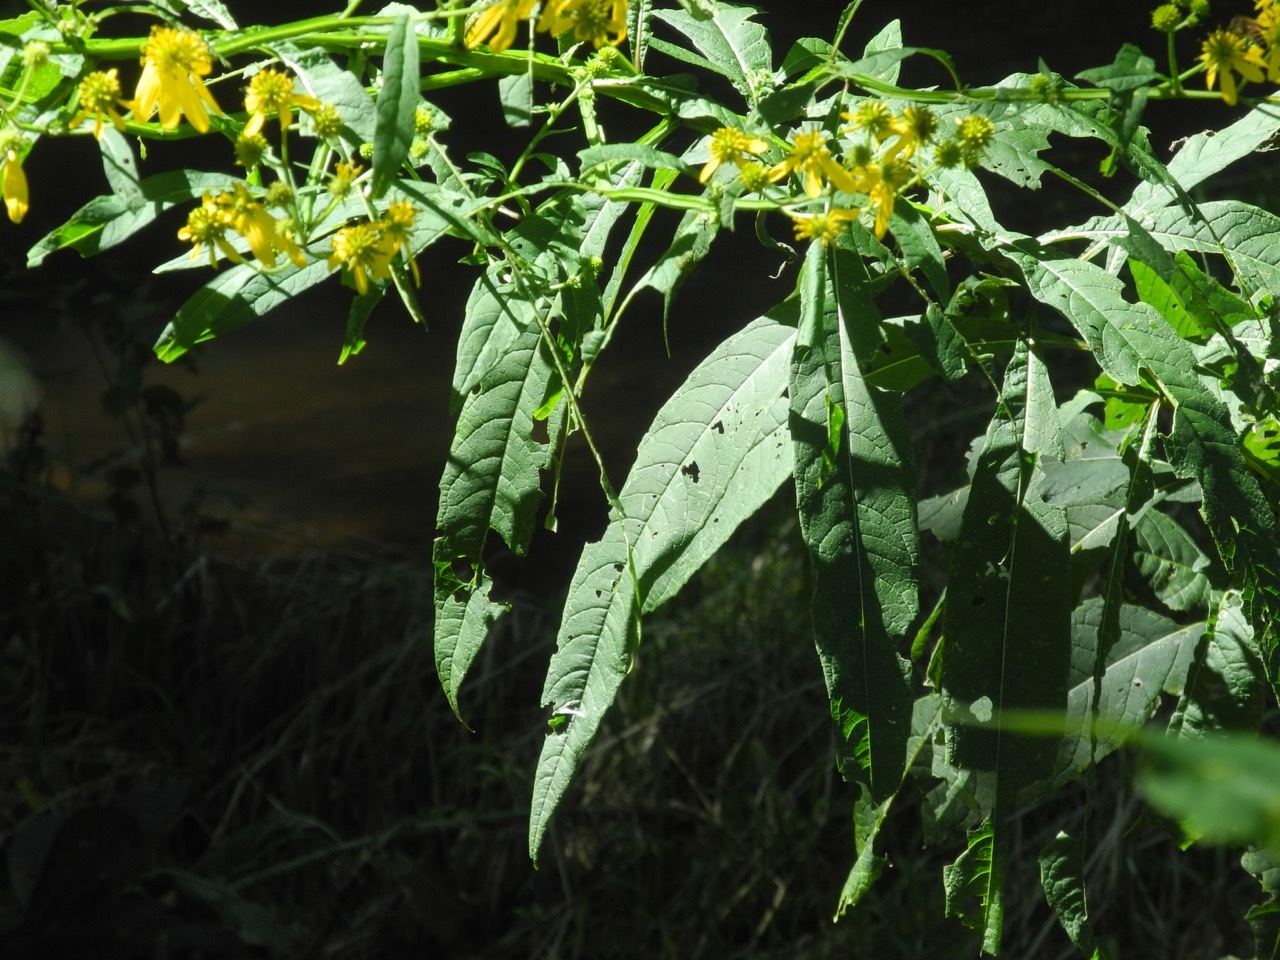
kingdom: Plantae
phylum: Tracheophyta
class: Magnoliopsida
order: Asterales
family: Asteraceae
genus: Verbesina
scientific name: Verbesina alternifolia
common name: Wingstem
